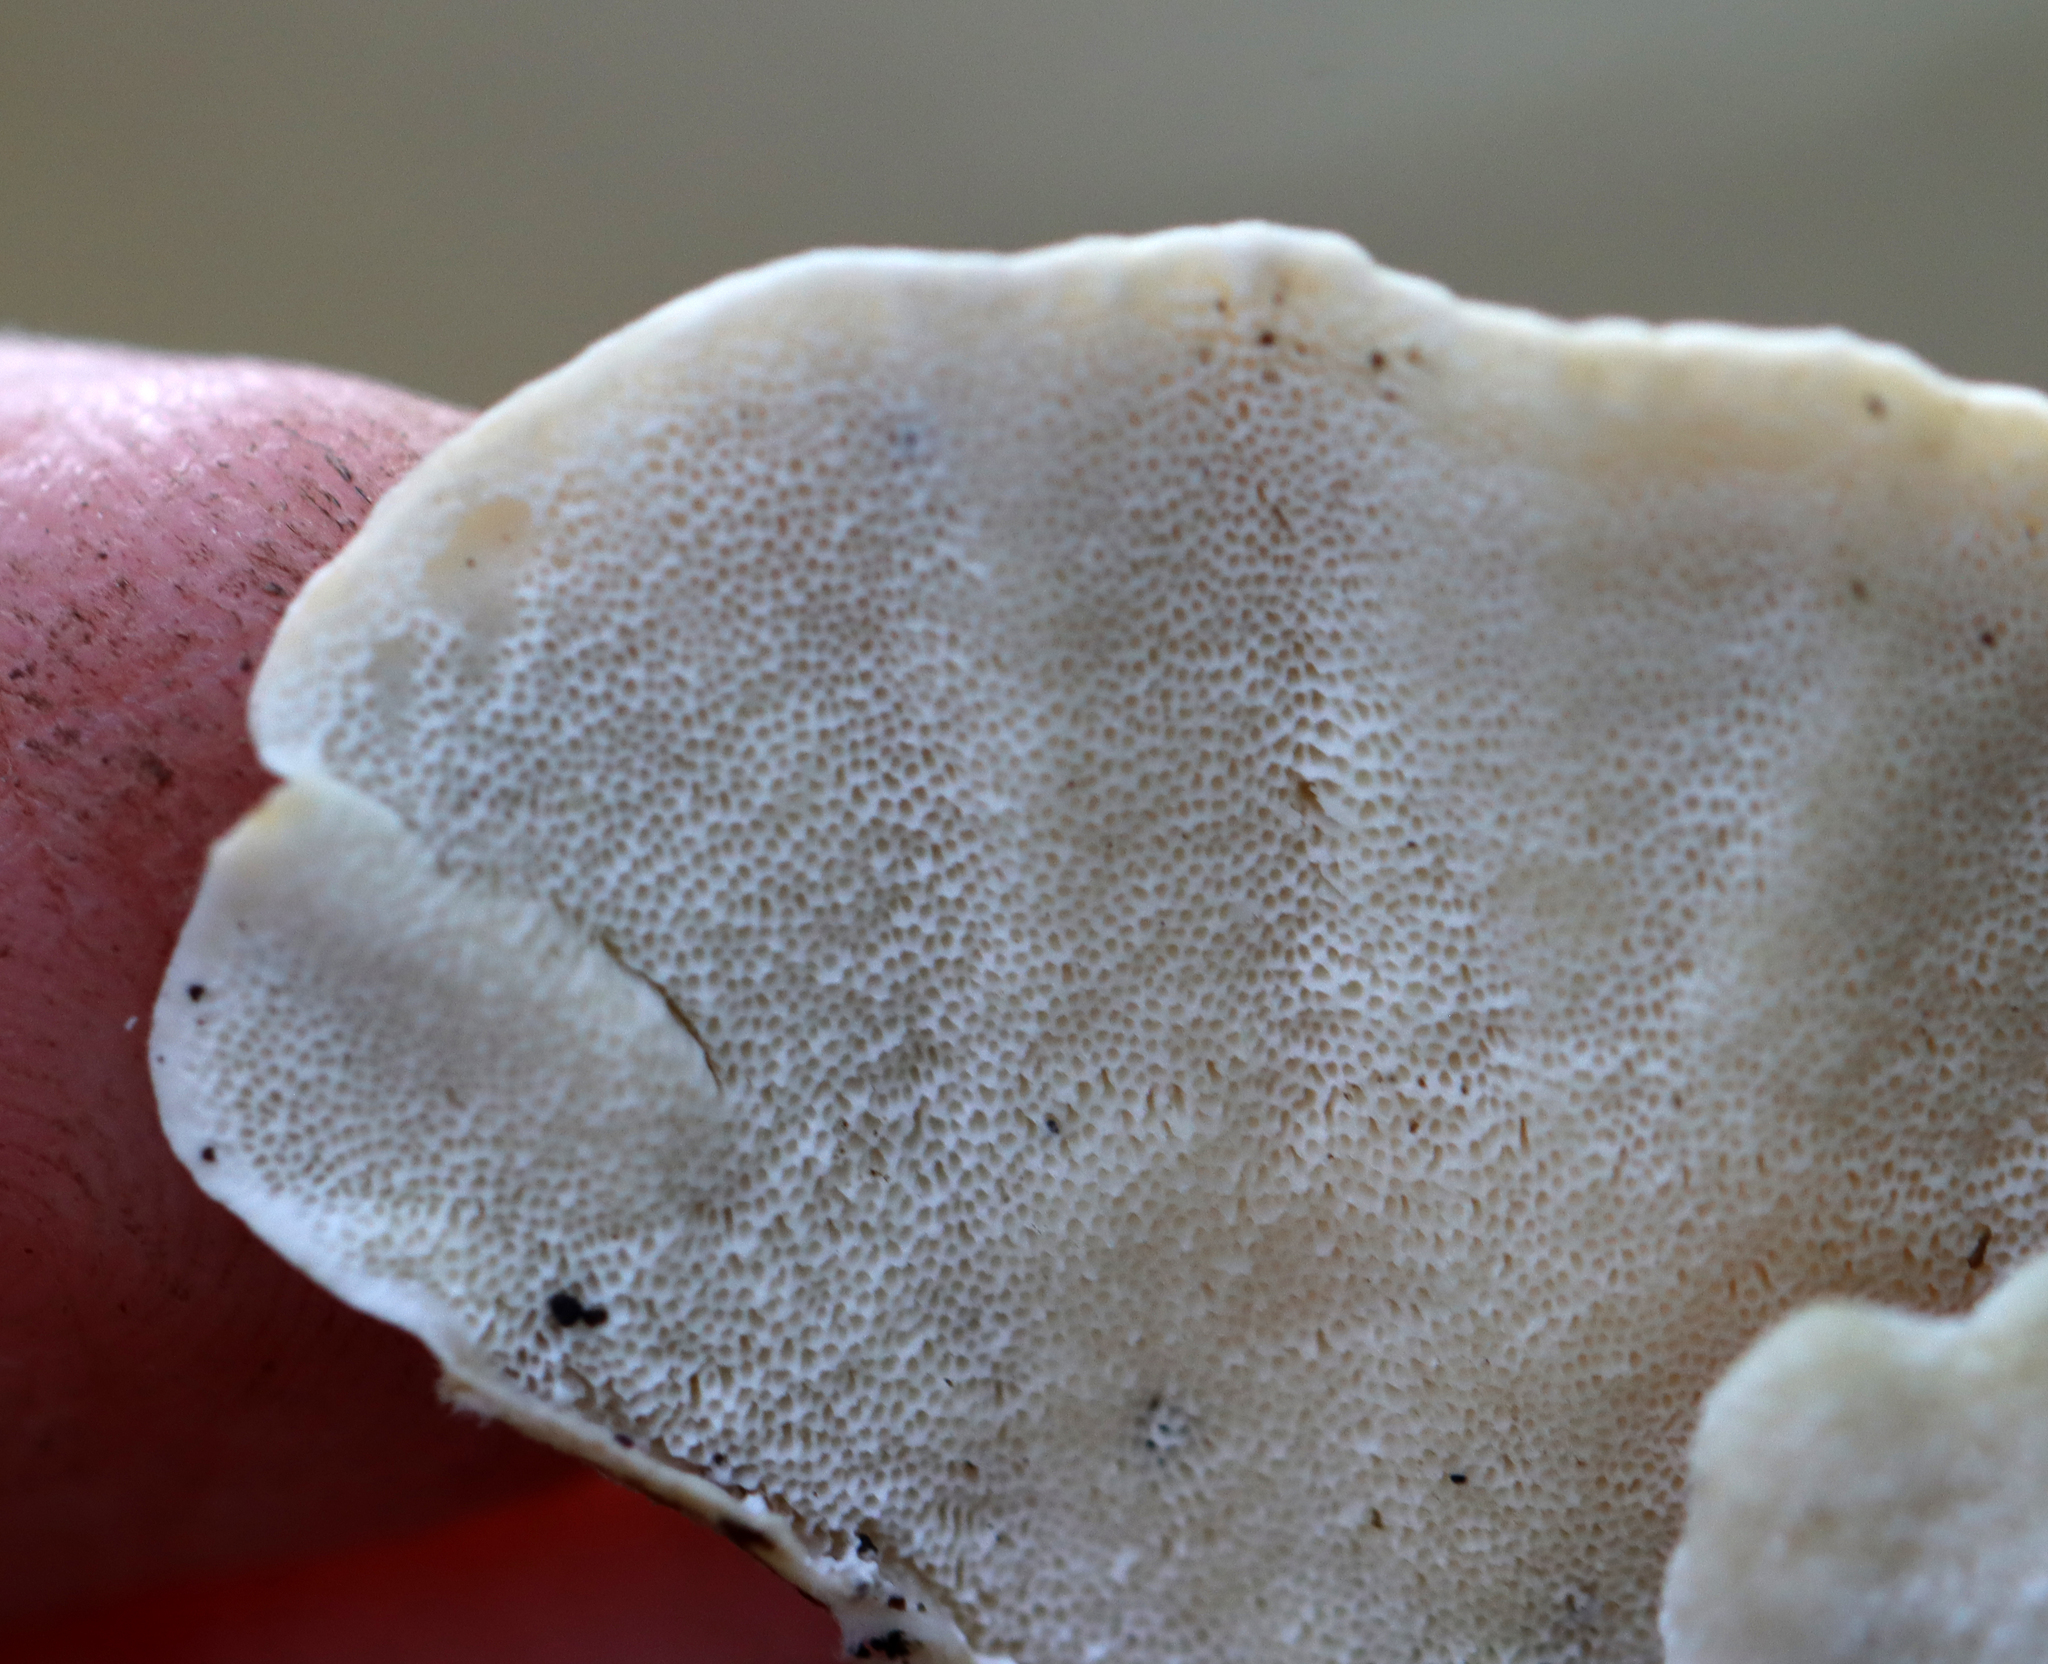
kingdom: Fungi
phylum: Basidiomycota
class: Agaricomycetes
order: Polyporales
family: Polyporaceae
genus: Trametes
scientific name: Trametes versicolor
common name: Turkeytail
